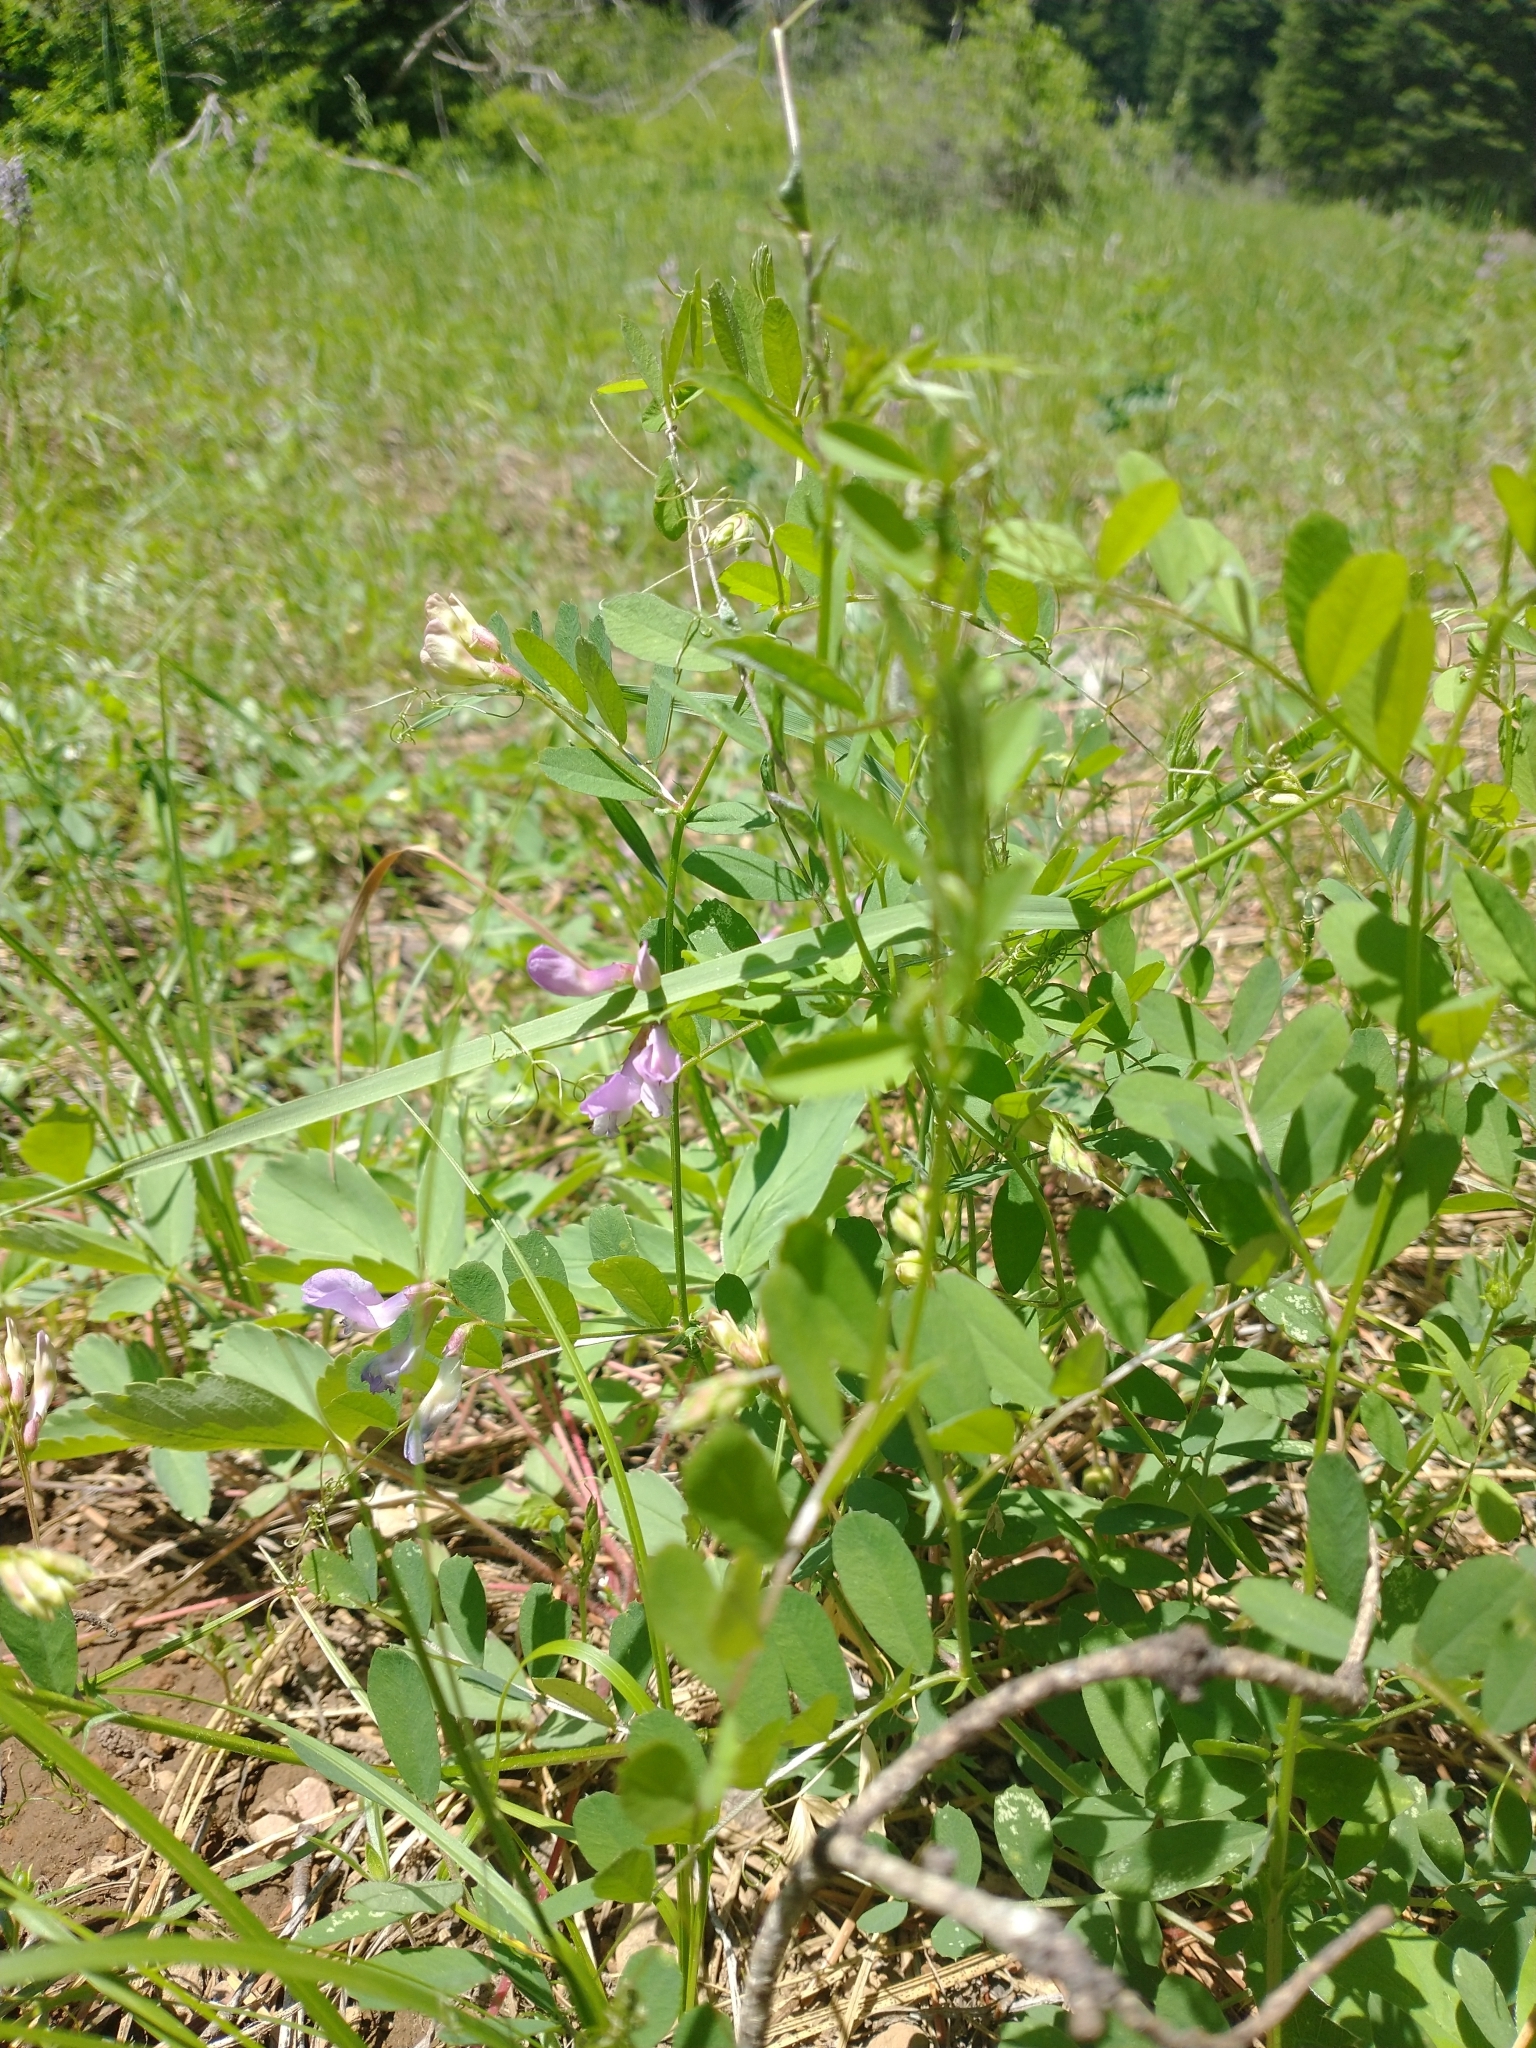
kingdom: Plantae
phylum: Tracheophyta
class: Magnoliopsida
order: Fabales
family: Fabaceae
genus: Vicia
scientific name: Vicia americana
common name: American vetch
